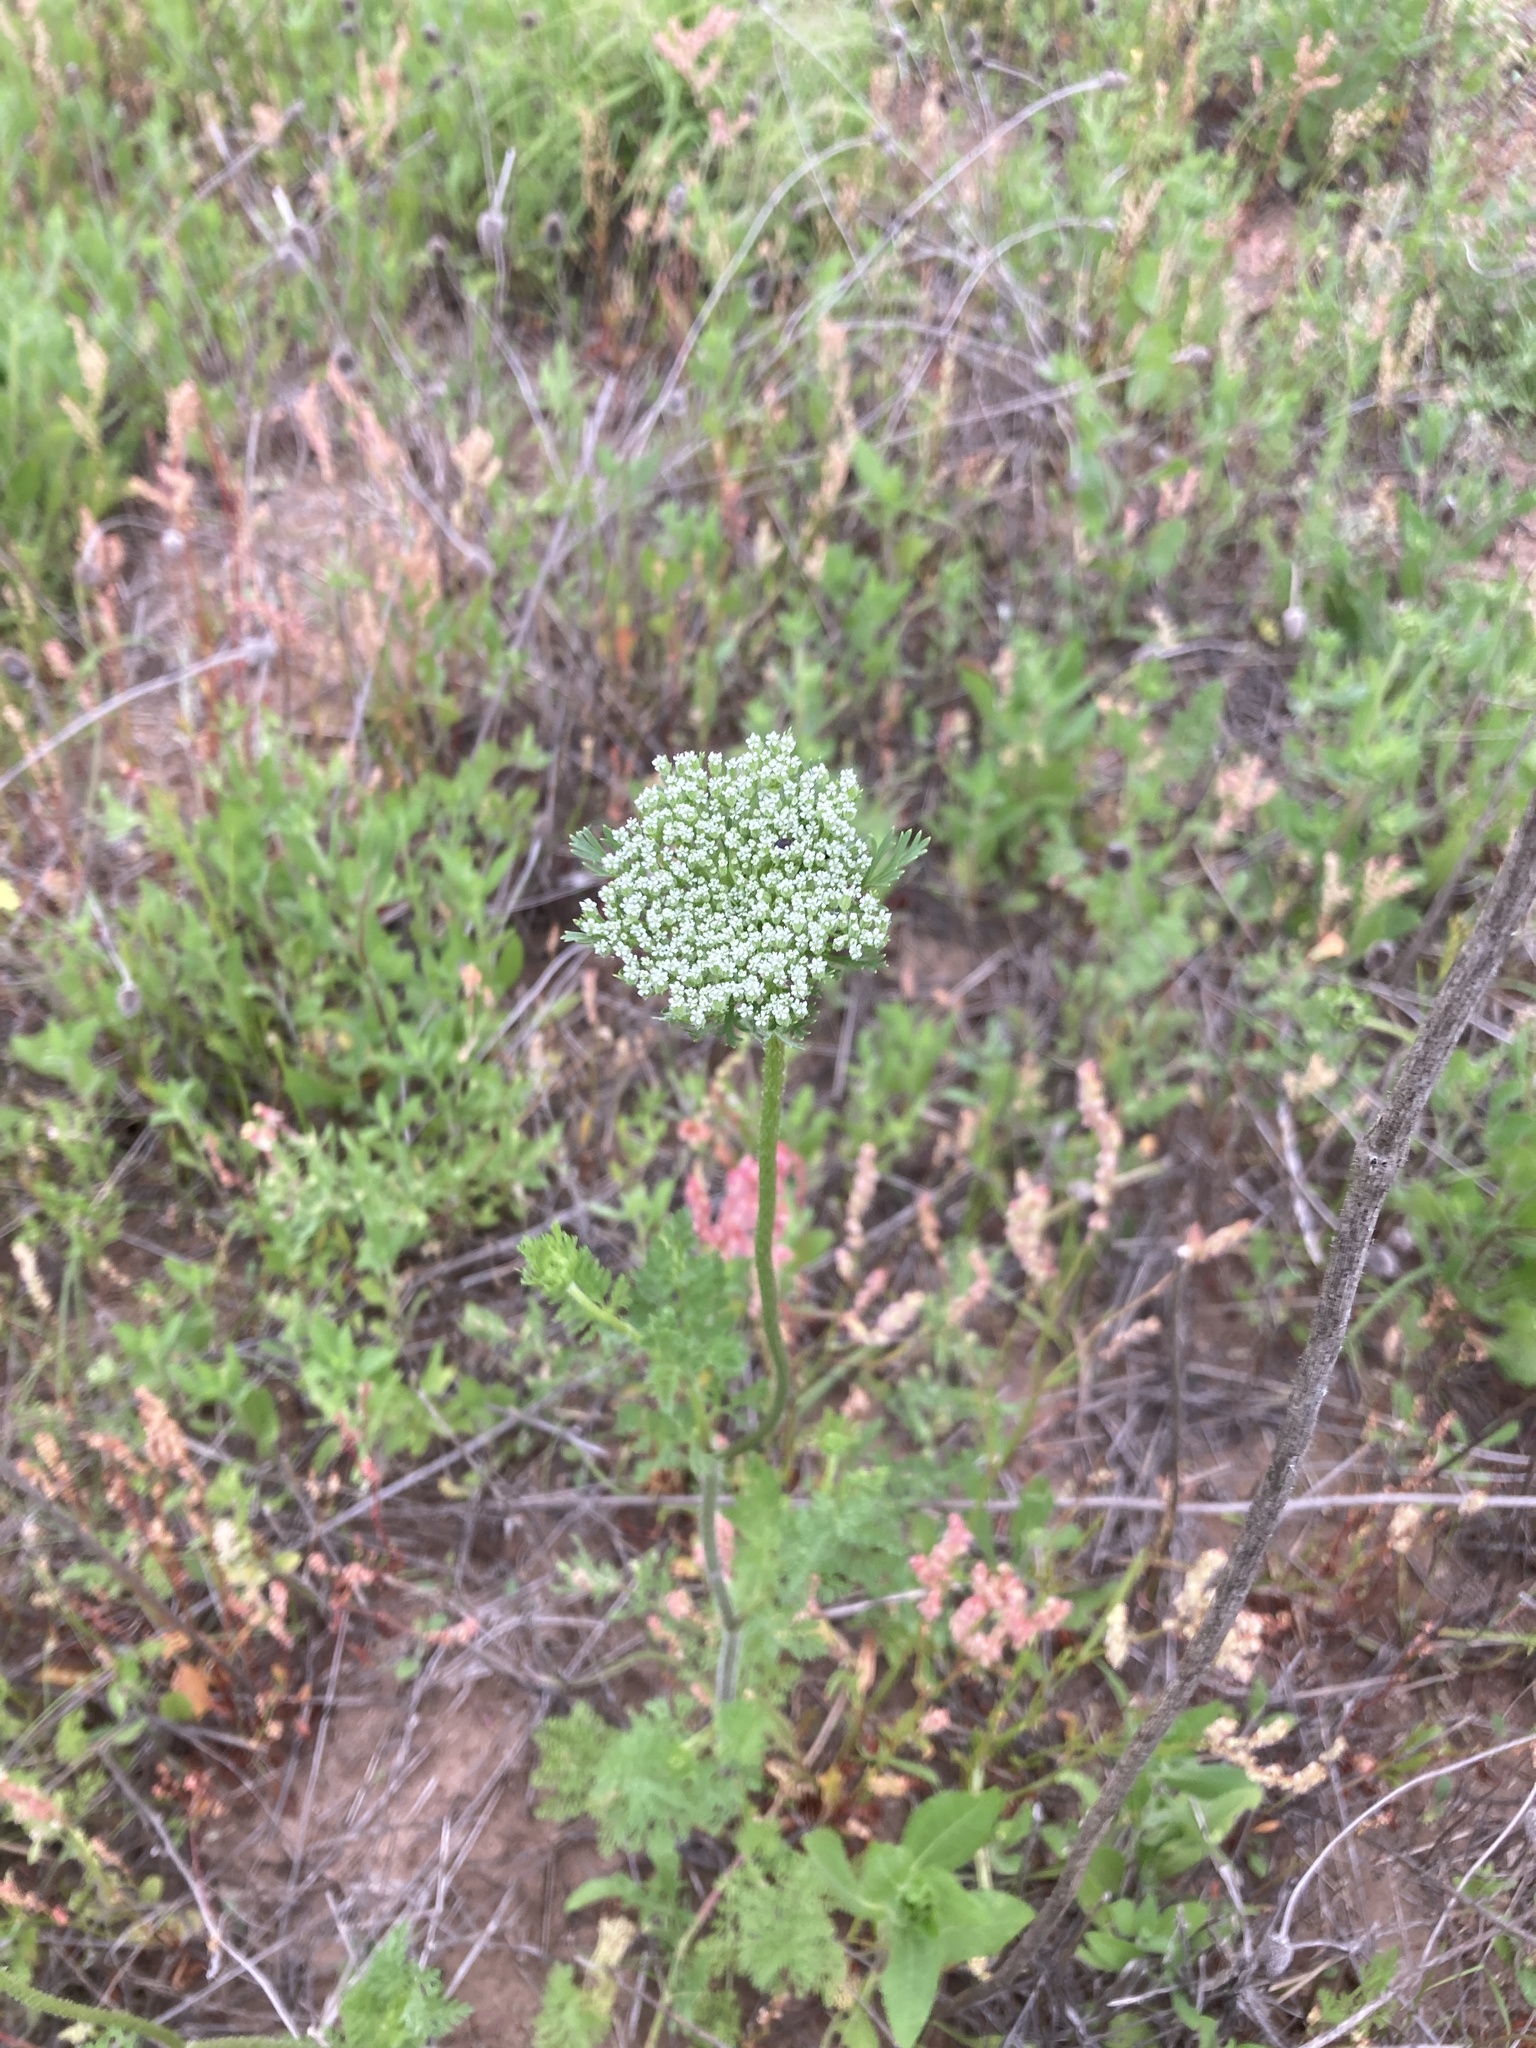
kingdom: Plantae
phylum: Tracheophyta
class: Magnoliopsida
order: Apiales
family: Apiaceae
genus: Daucus
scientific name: Daucus pusillus
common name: Southwest wild carrot
